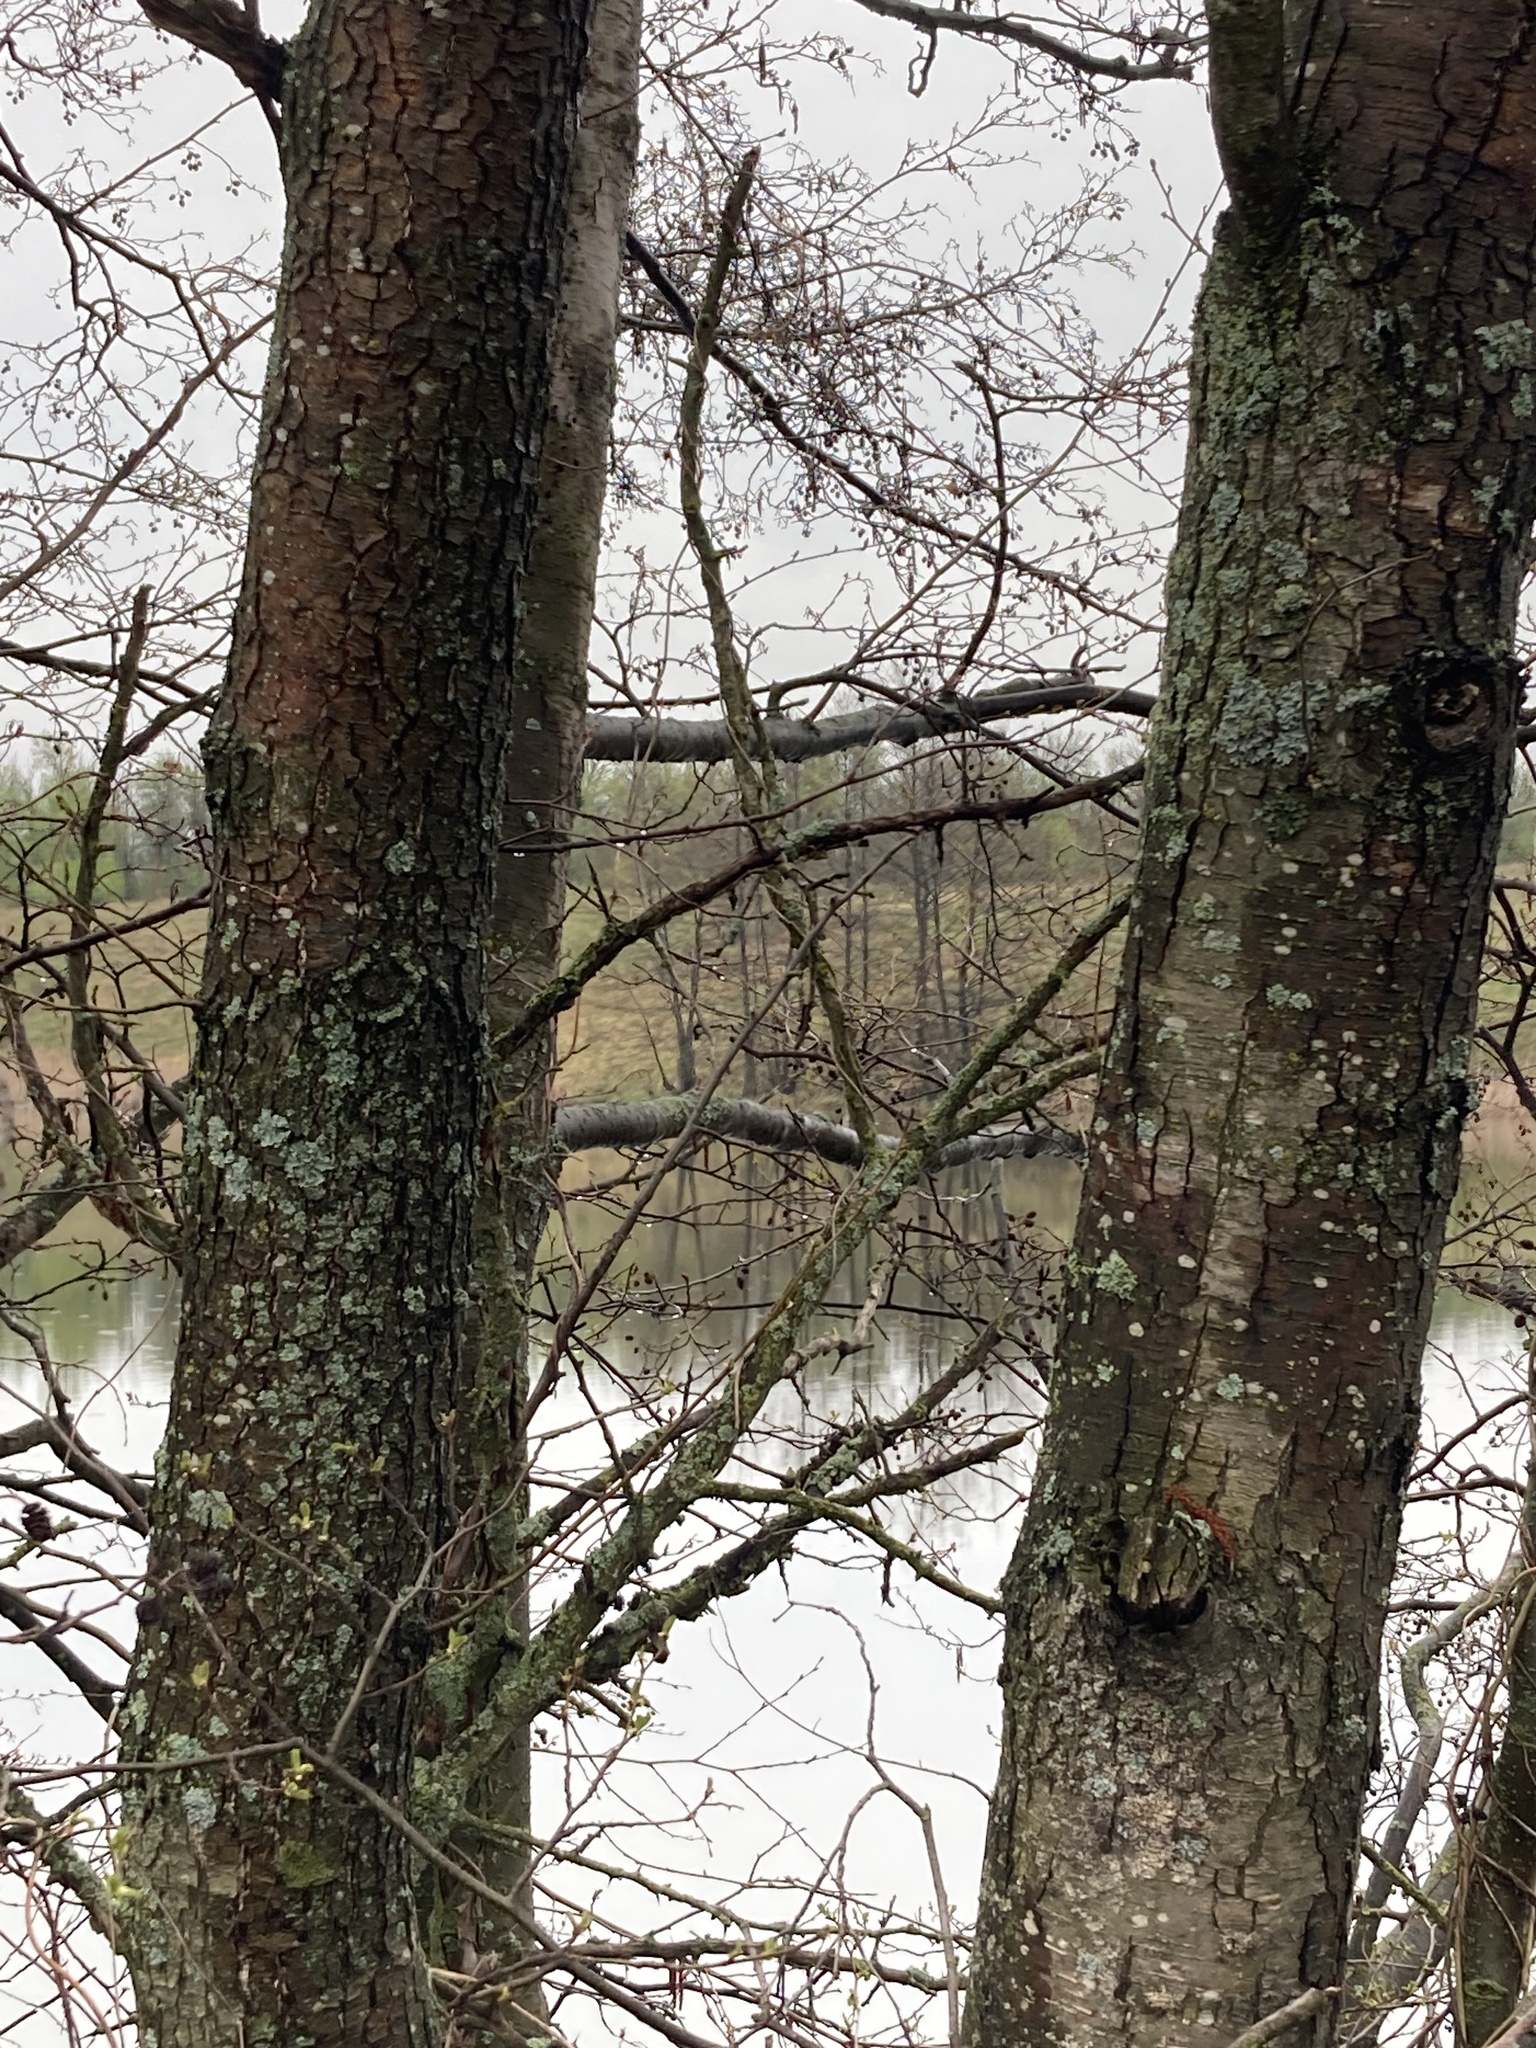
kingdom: Plantae
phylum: Tracheophyta
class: Magnoliopsida
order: Fagales
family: Betulaceae
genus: Alnus
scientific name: Alnus glutinosa
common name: Black alder
